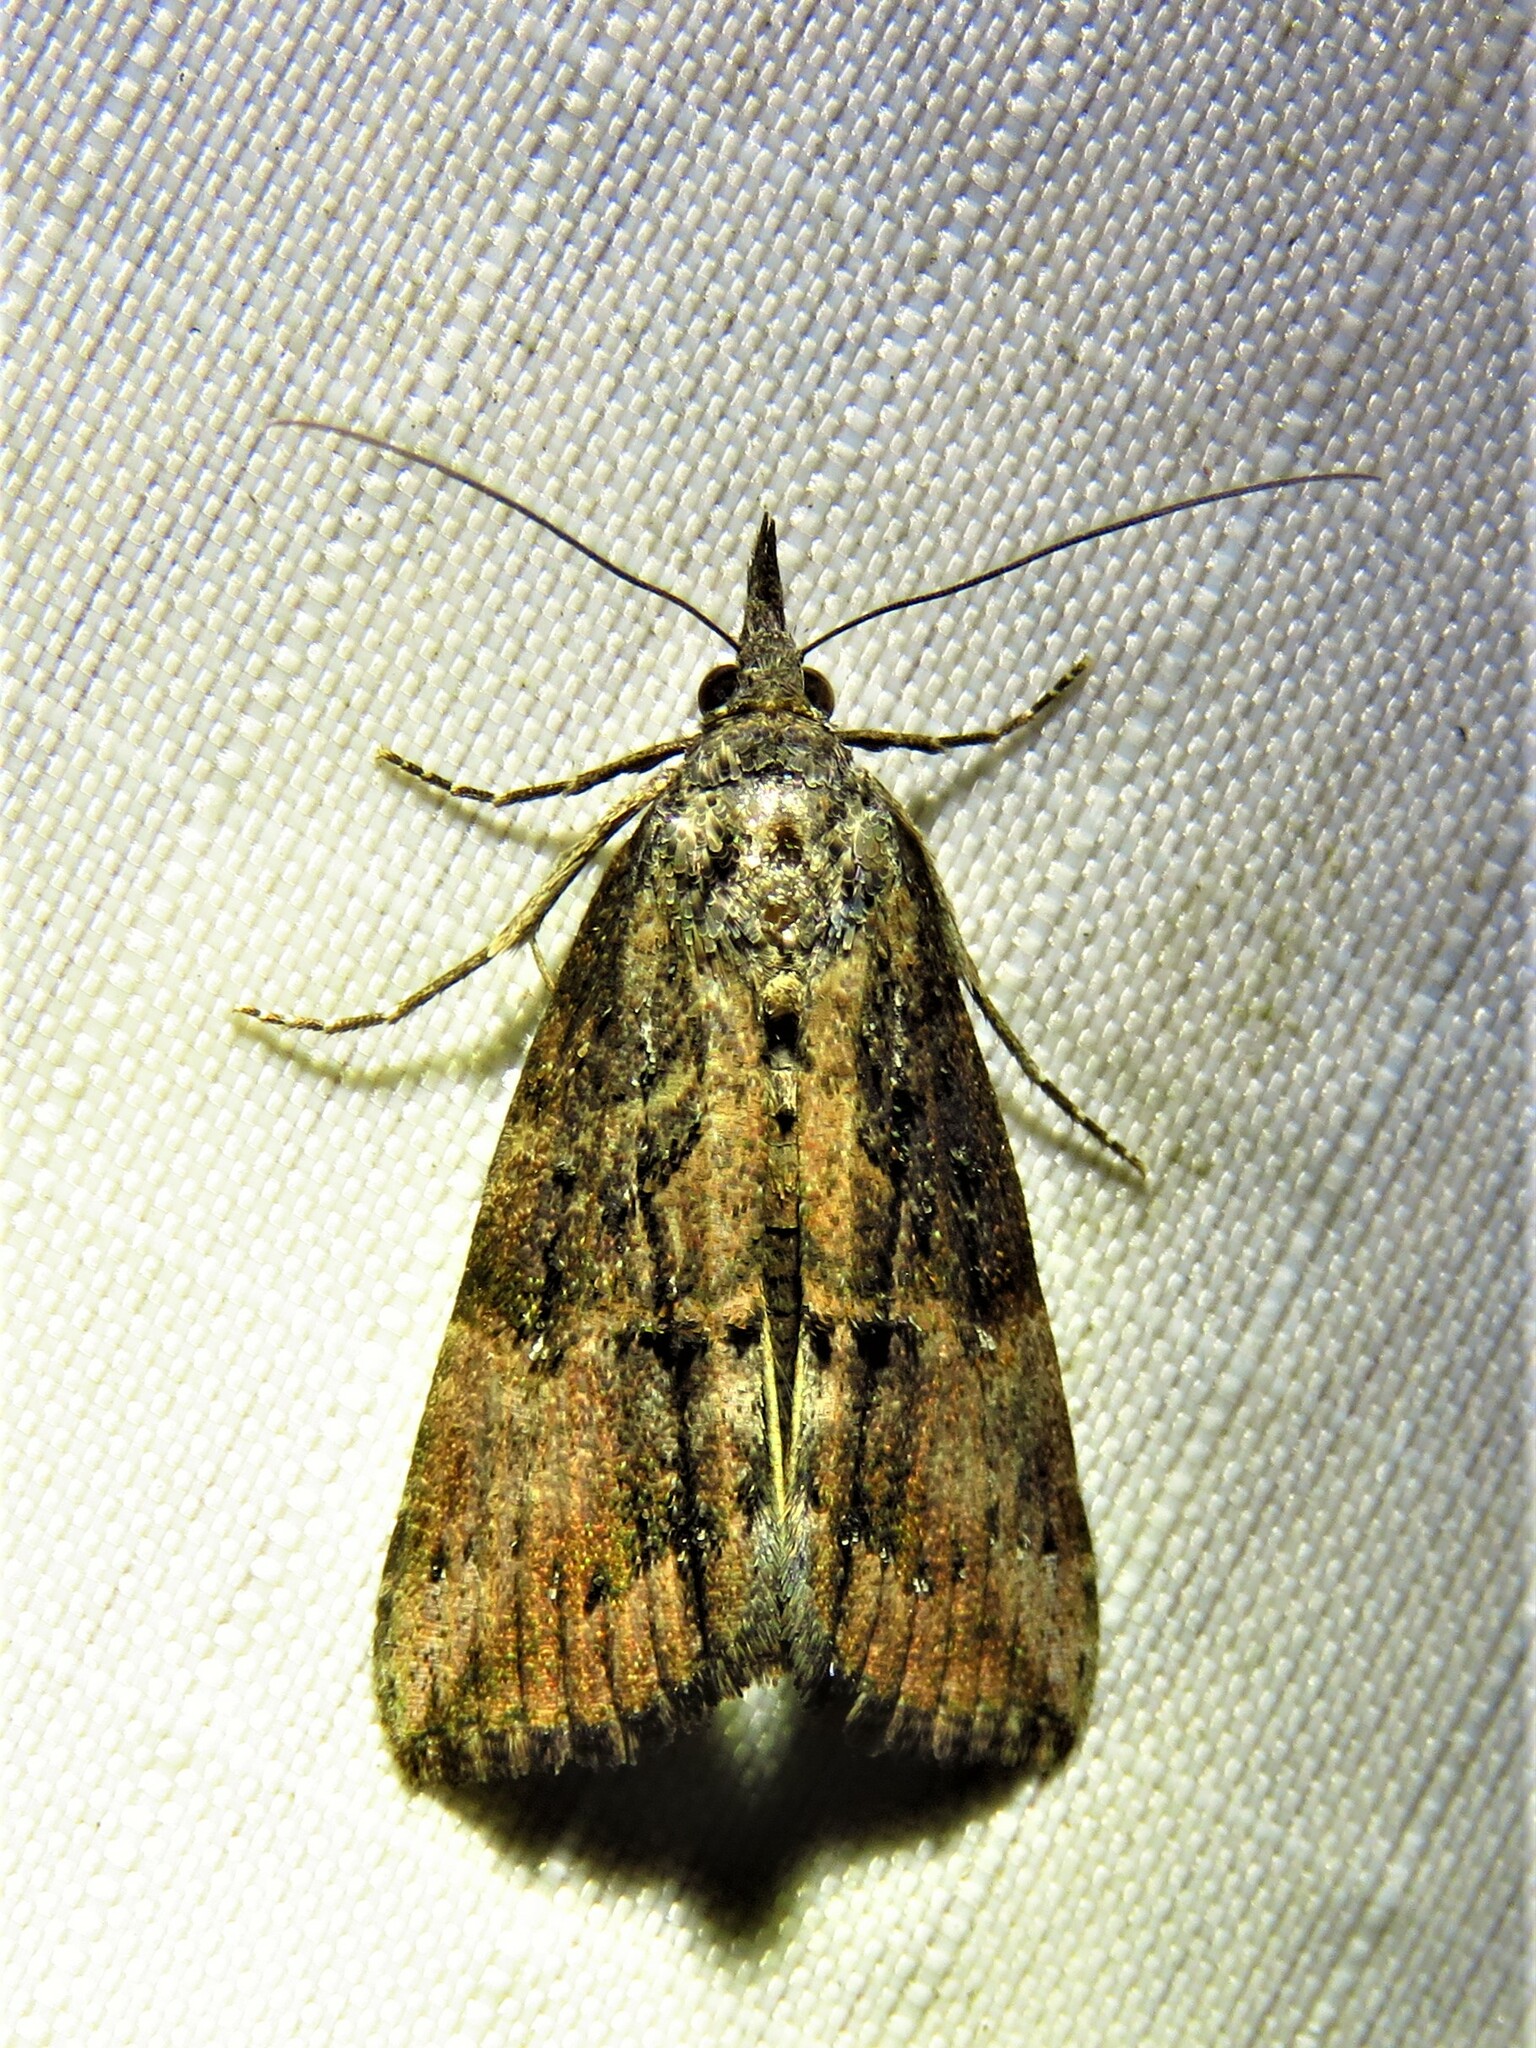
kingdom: Animalia
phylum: Arthropoda
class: Insecta
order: Lepidoptera
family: Erebidae
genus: Hypena
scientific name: Hypena scabra
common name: Green cloverworm
